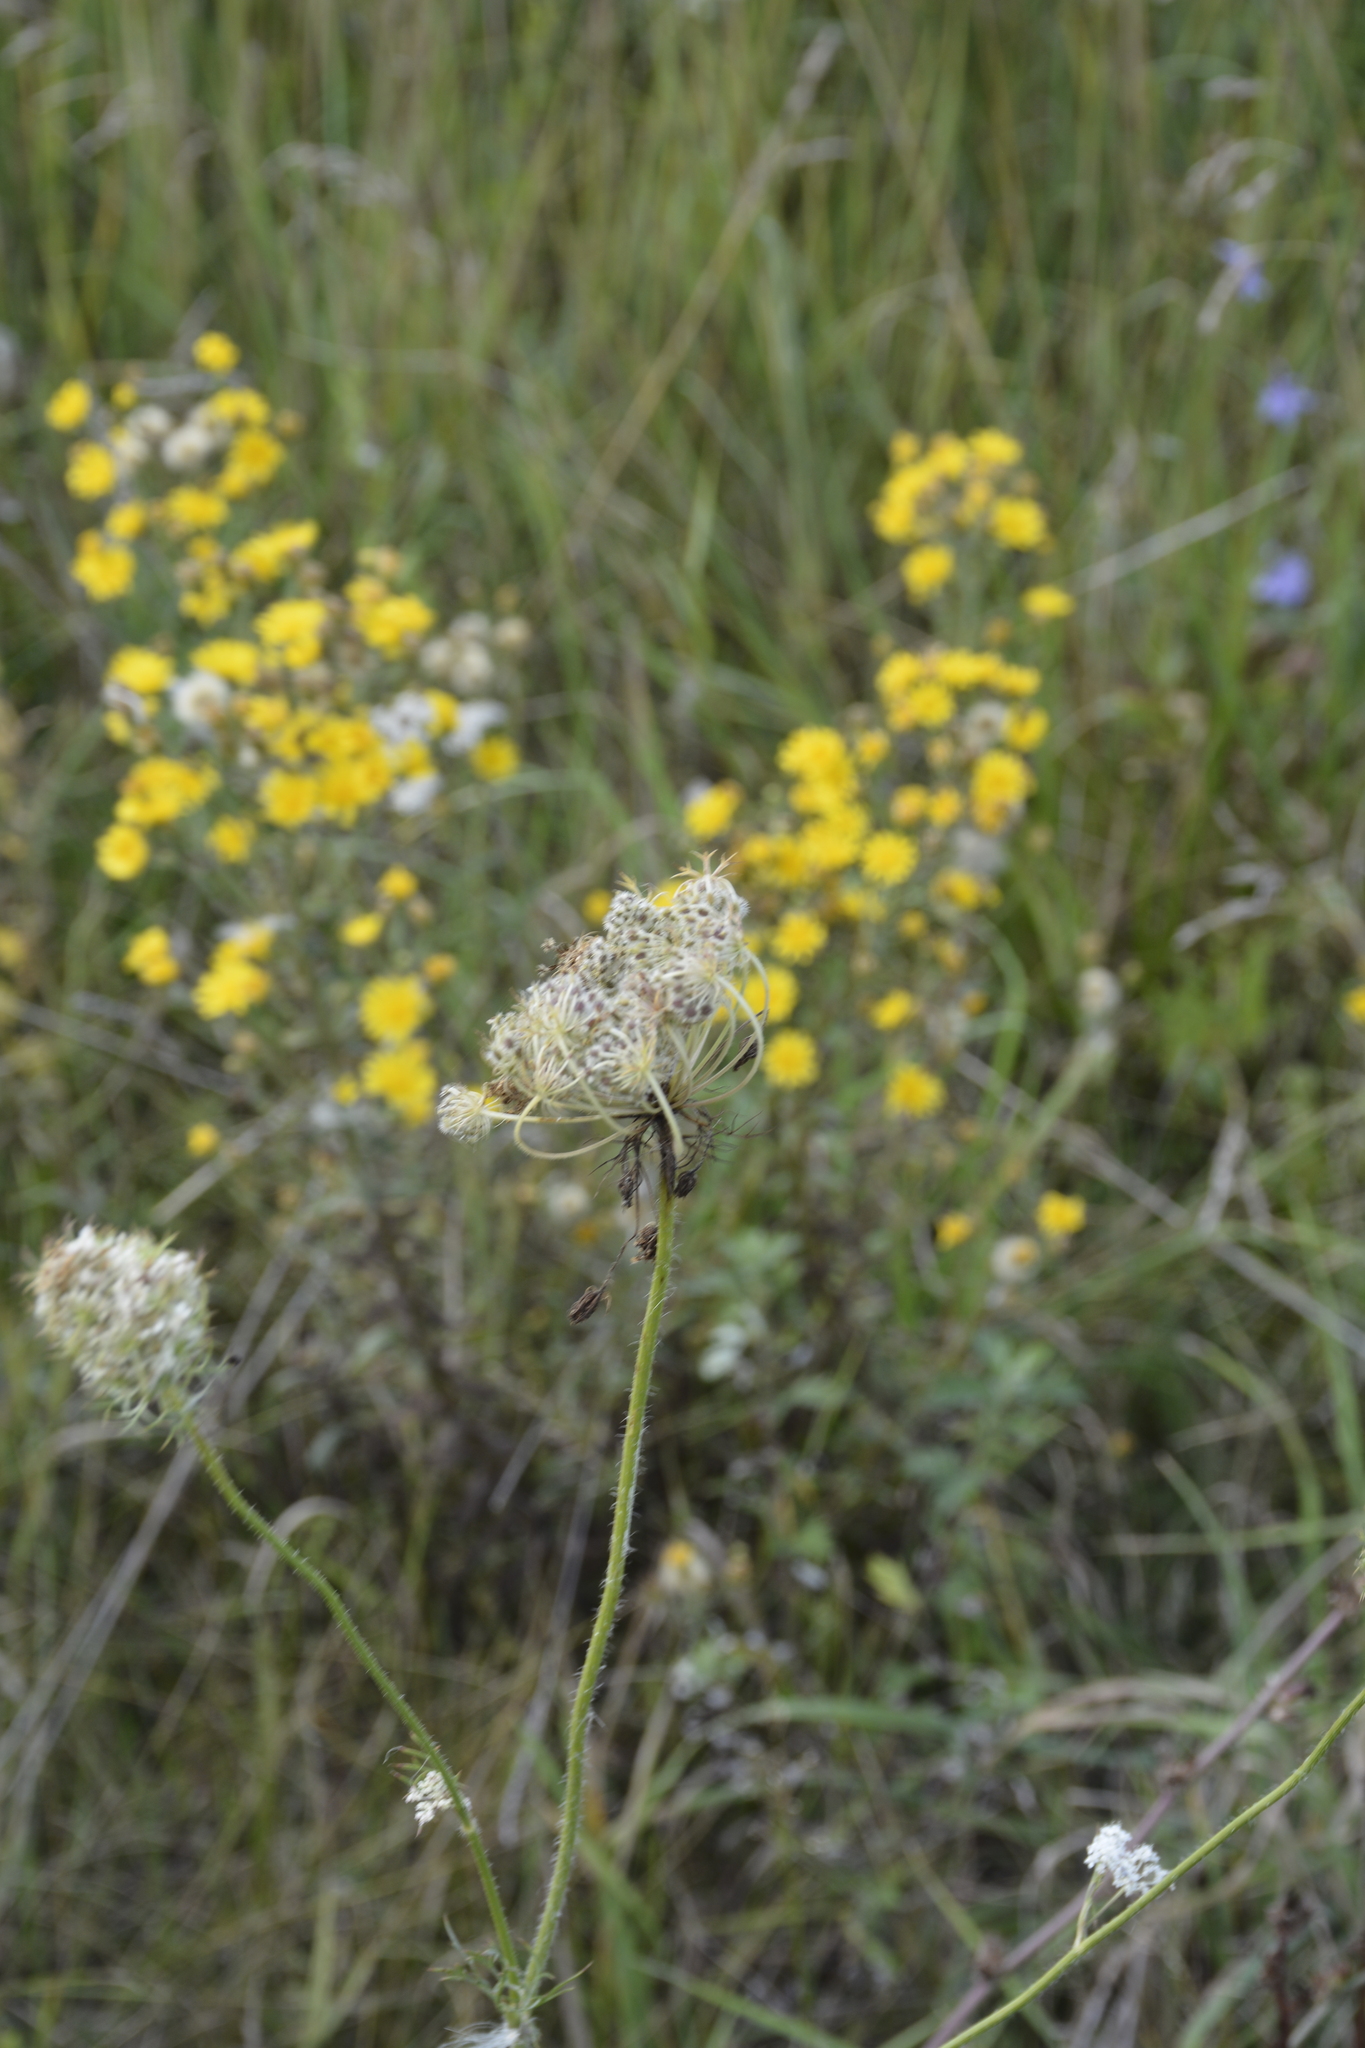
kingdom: Plantae
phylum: Tracheophyta
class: Magnoliopsida
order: Apiales
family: Apiaceae
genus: Daucus
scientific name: Daucus carota
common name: Wild carrot
